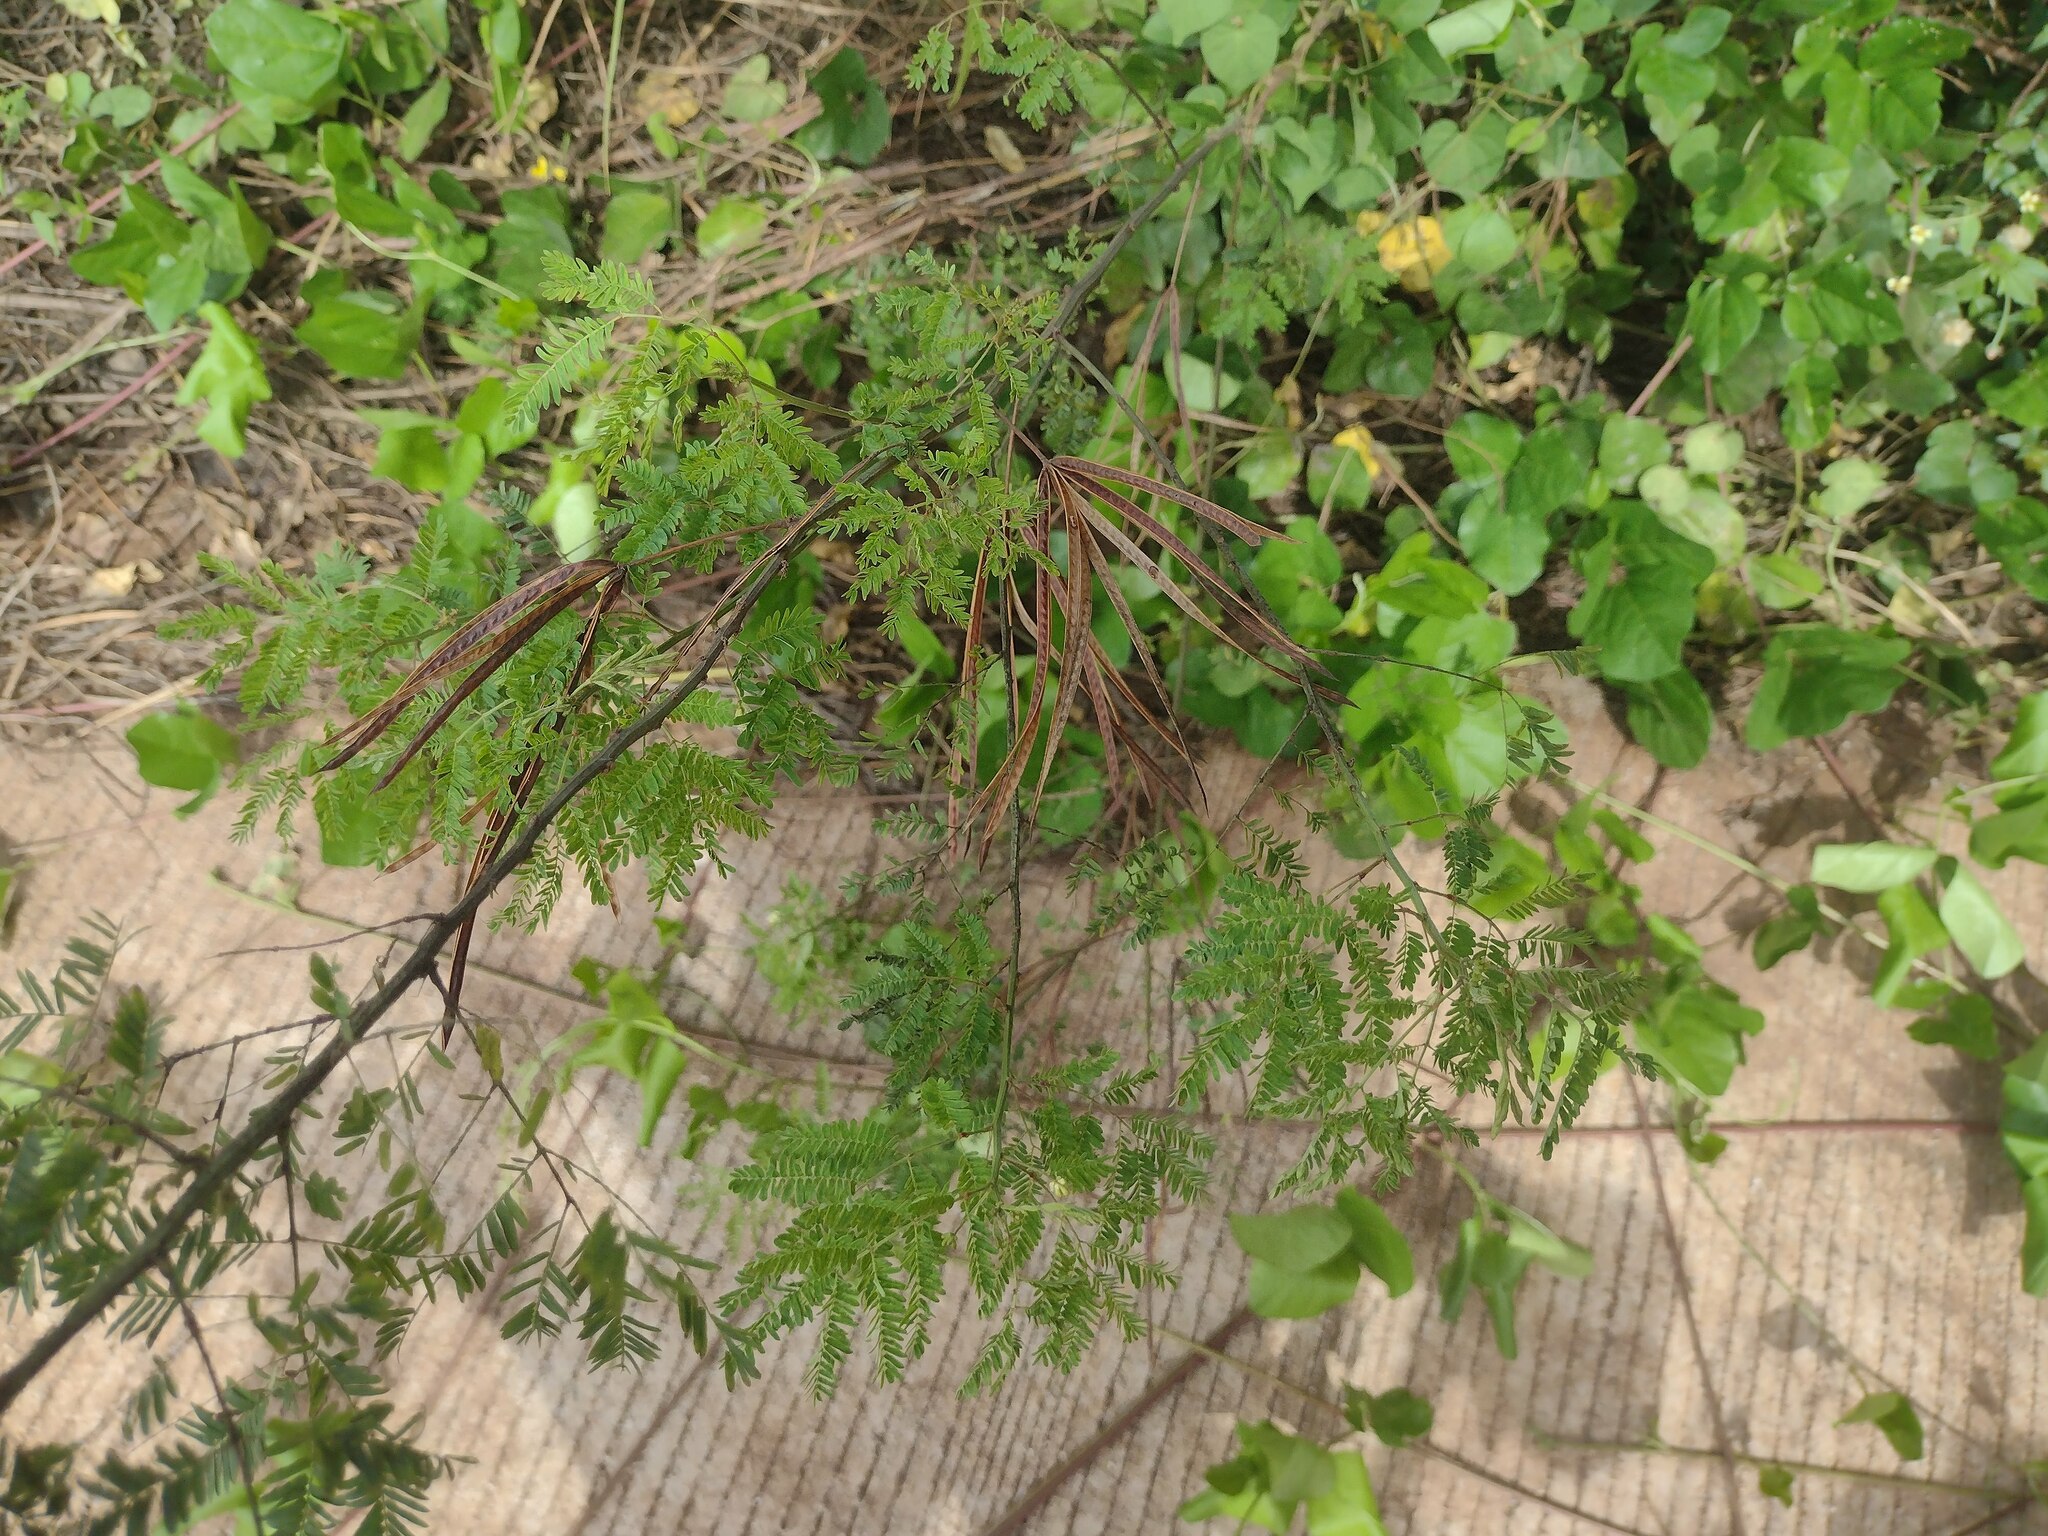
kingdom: Plantae
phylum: Tracheophyta
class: Magnoliopsida
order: Fabales
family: Fabaceae
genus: Desmanthus
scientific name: Desmanthus pernambucanus
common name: Pigeon bundleflower
